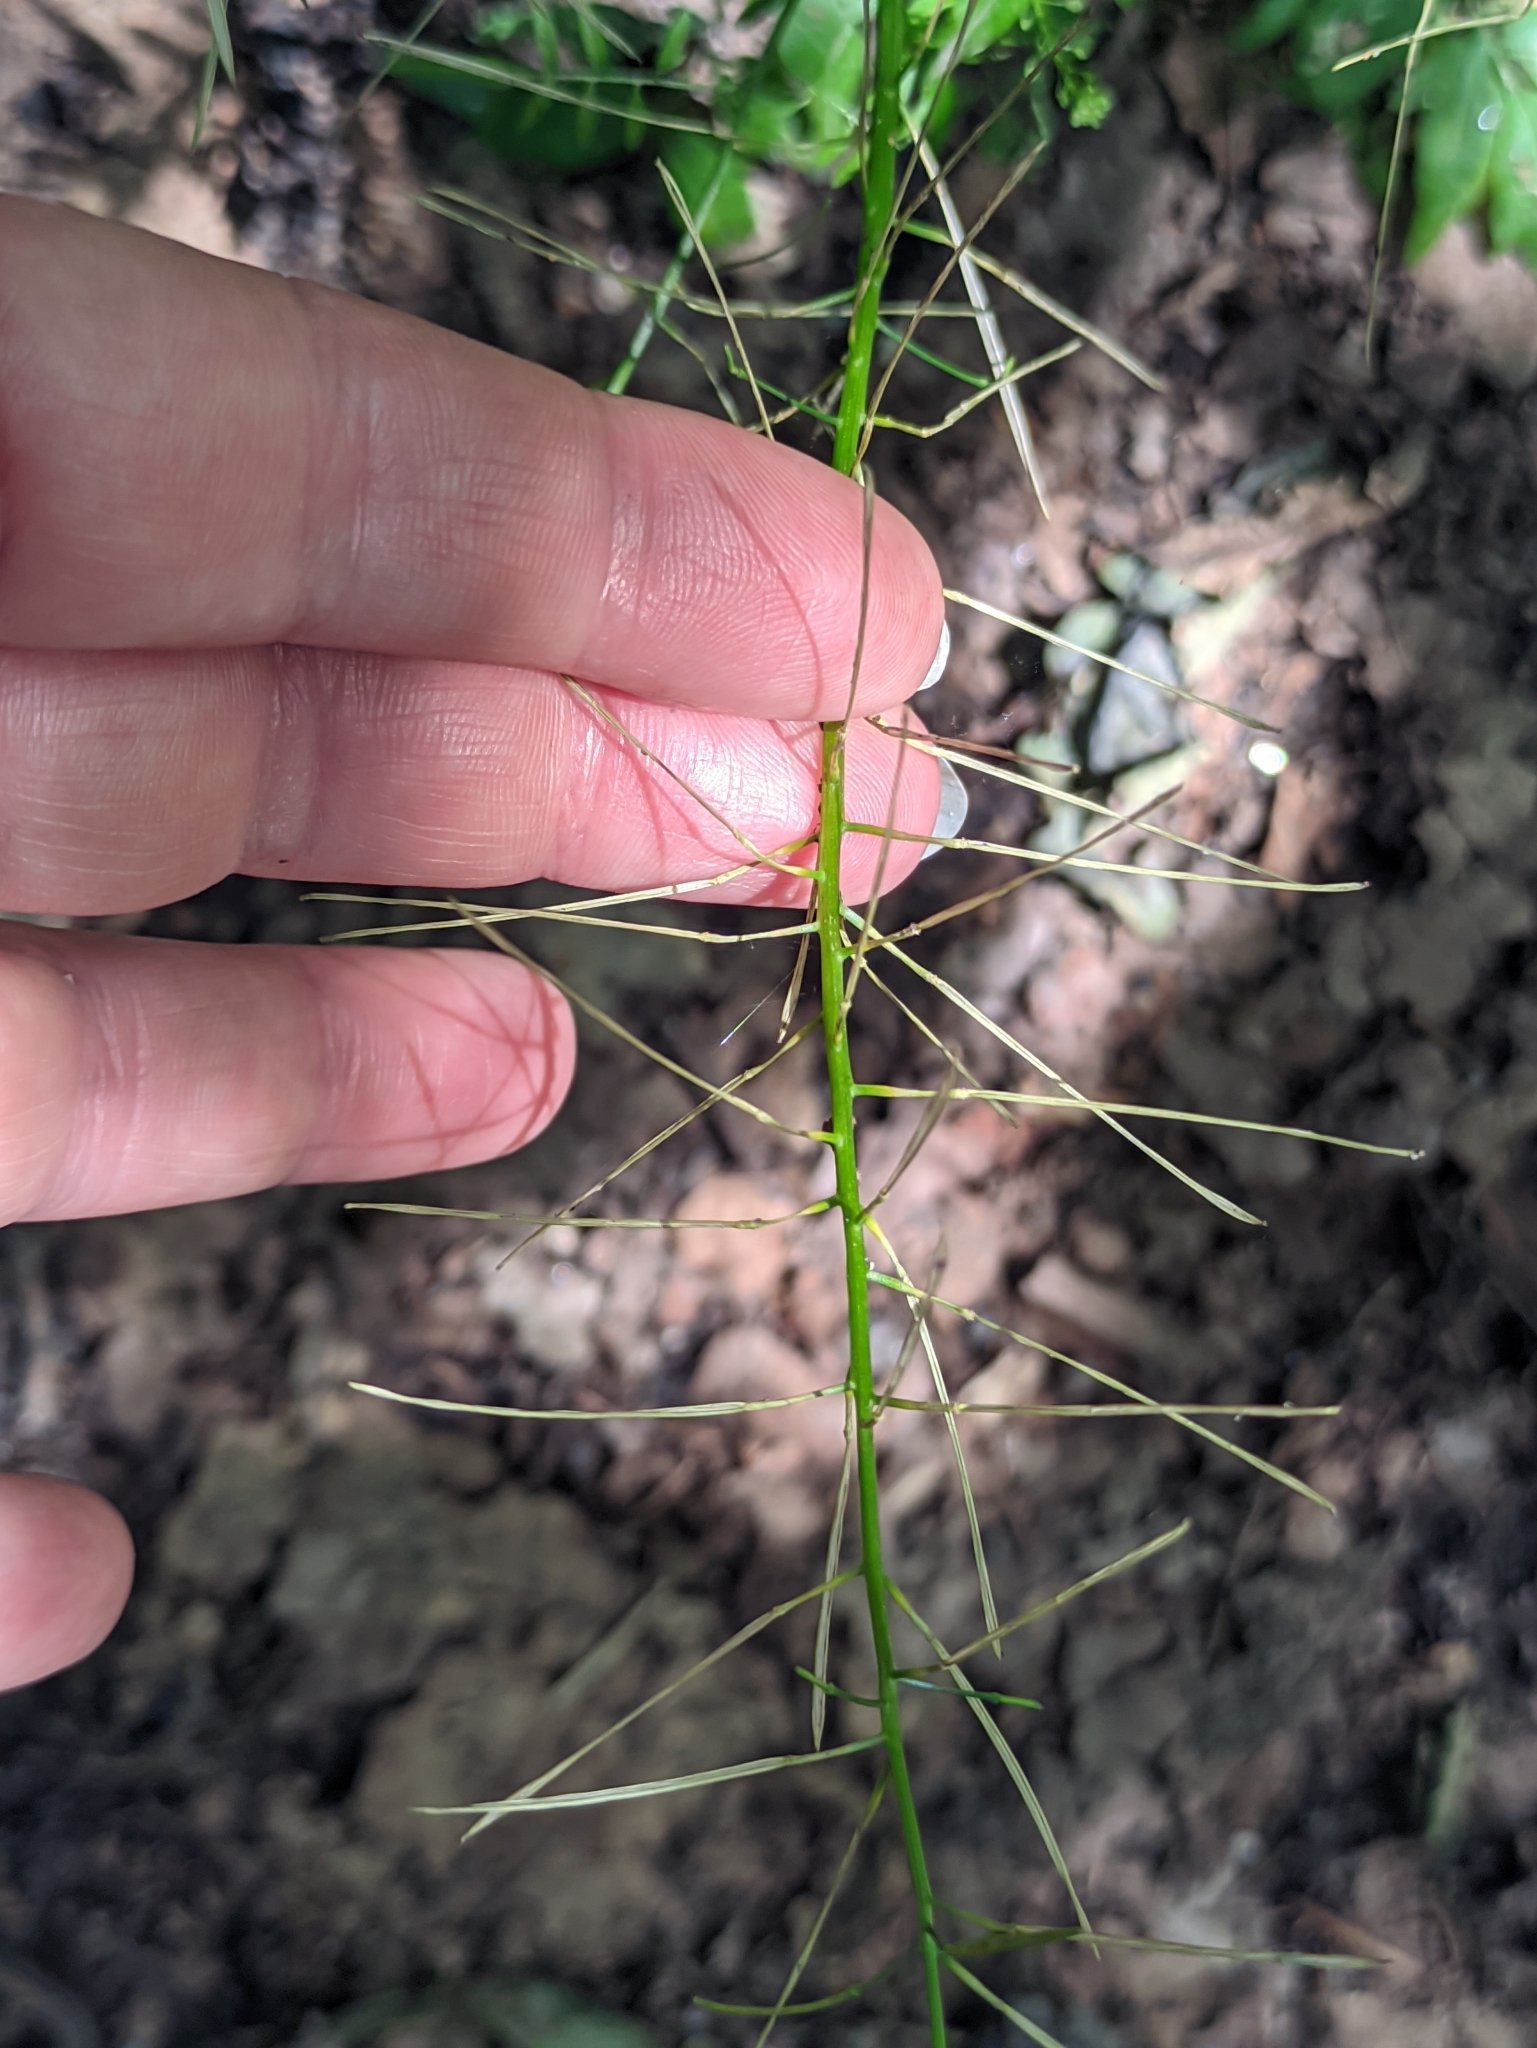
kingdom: Plantae
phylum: Tracheophyta
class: Magnoliopsida
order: Brassicales
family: Brassicaceae
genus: Cardamine
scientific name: Cardamine impatiens
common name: Narrow-leaved bitter-cress
